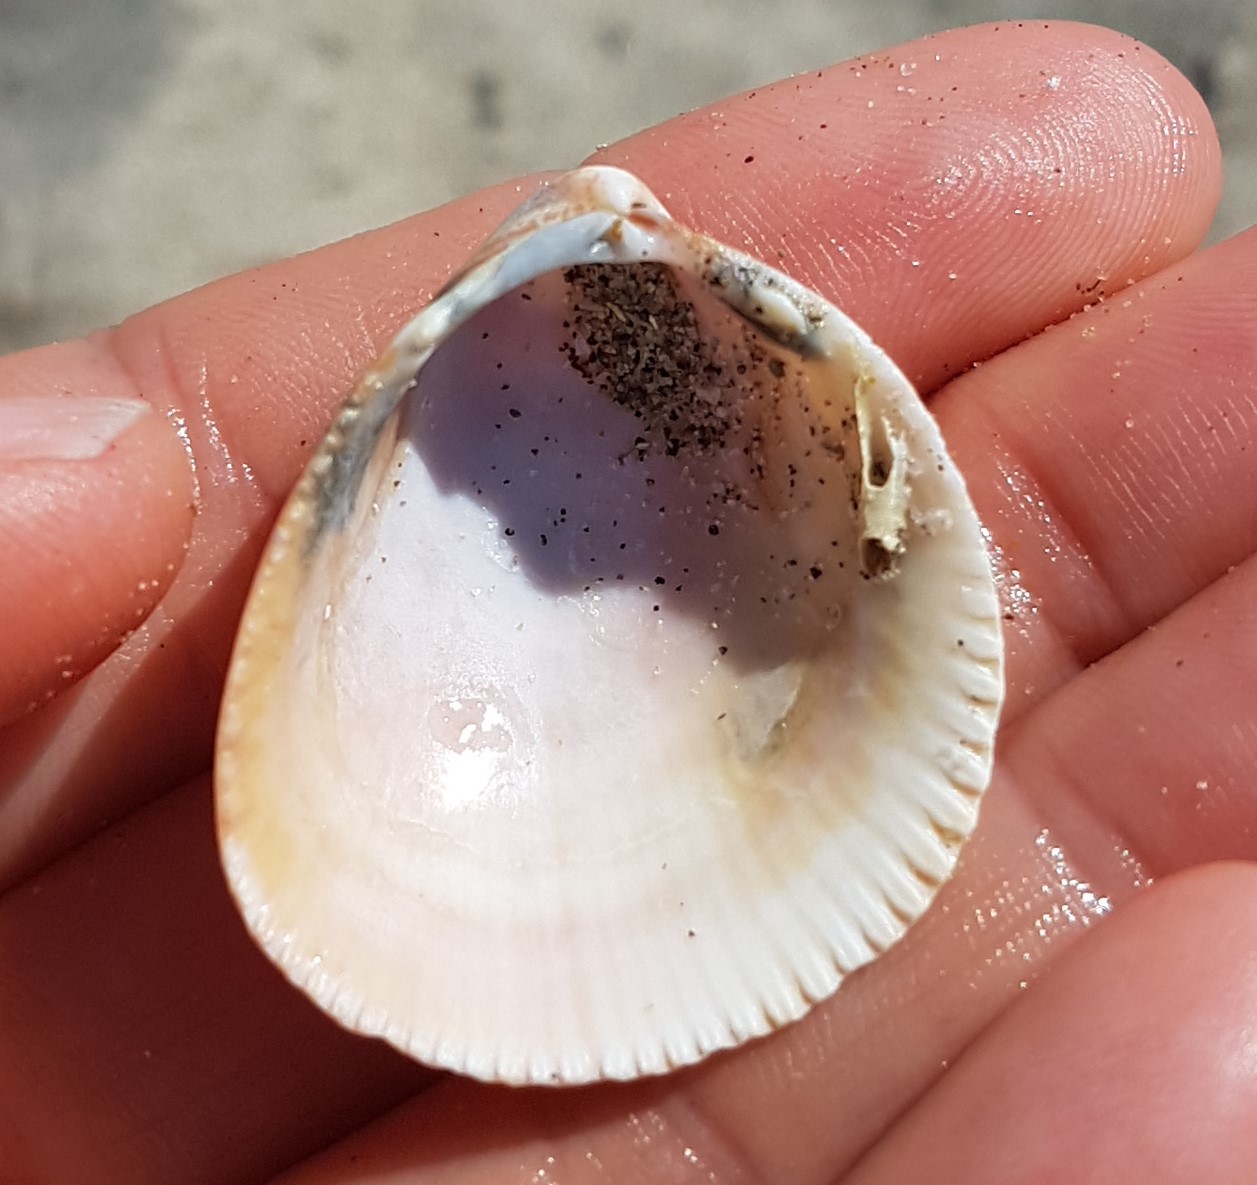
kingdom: Animalia
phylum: Mollusca
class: Bivalvia
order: Cardiida
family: Cardiidae
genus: Laevicardium
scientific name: Laevicardium oblongum
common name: Oblong cockle
